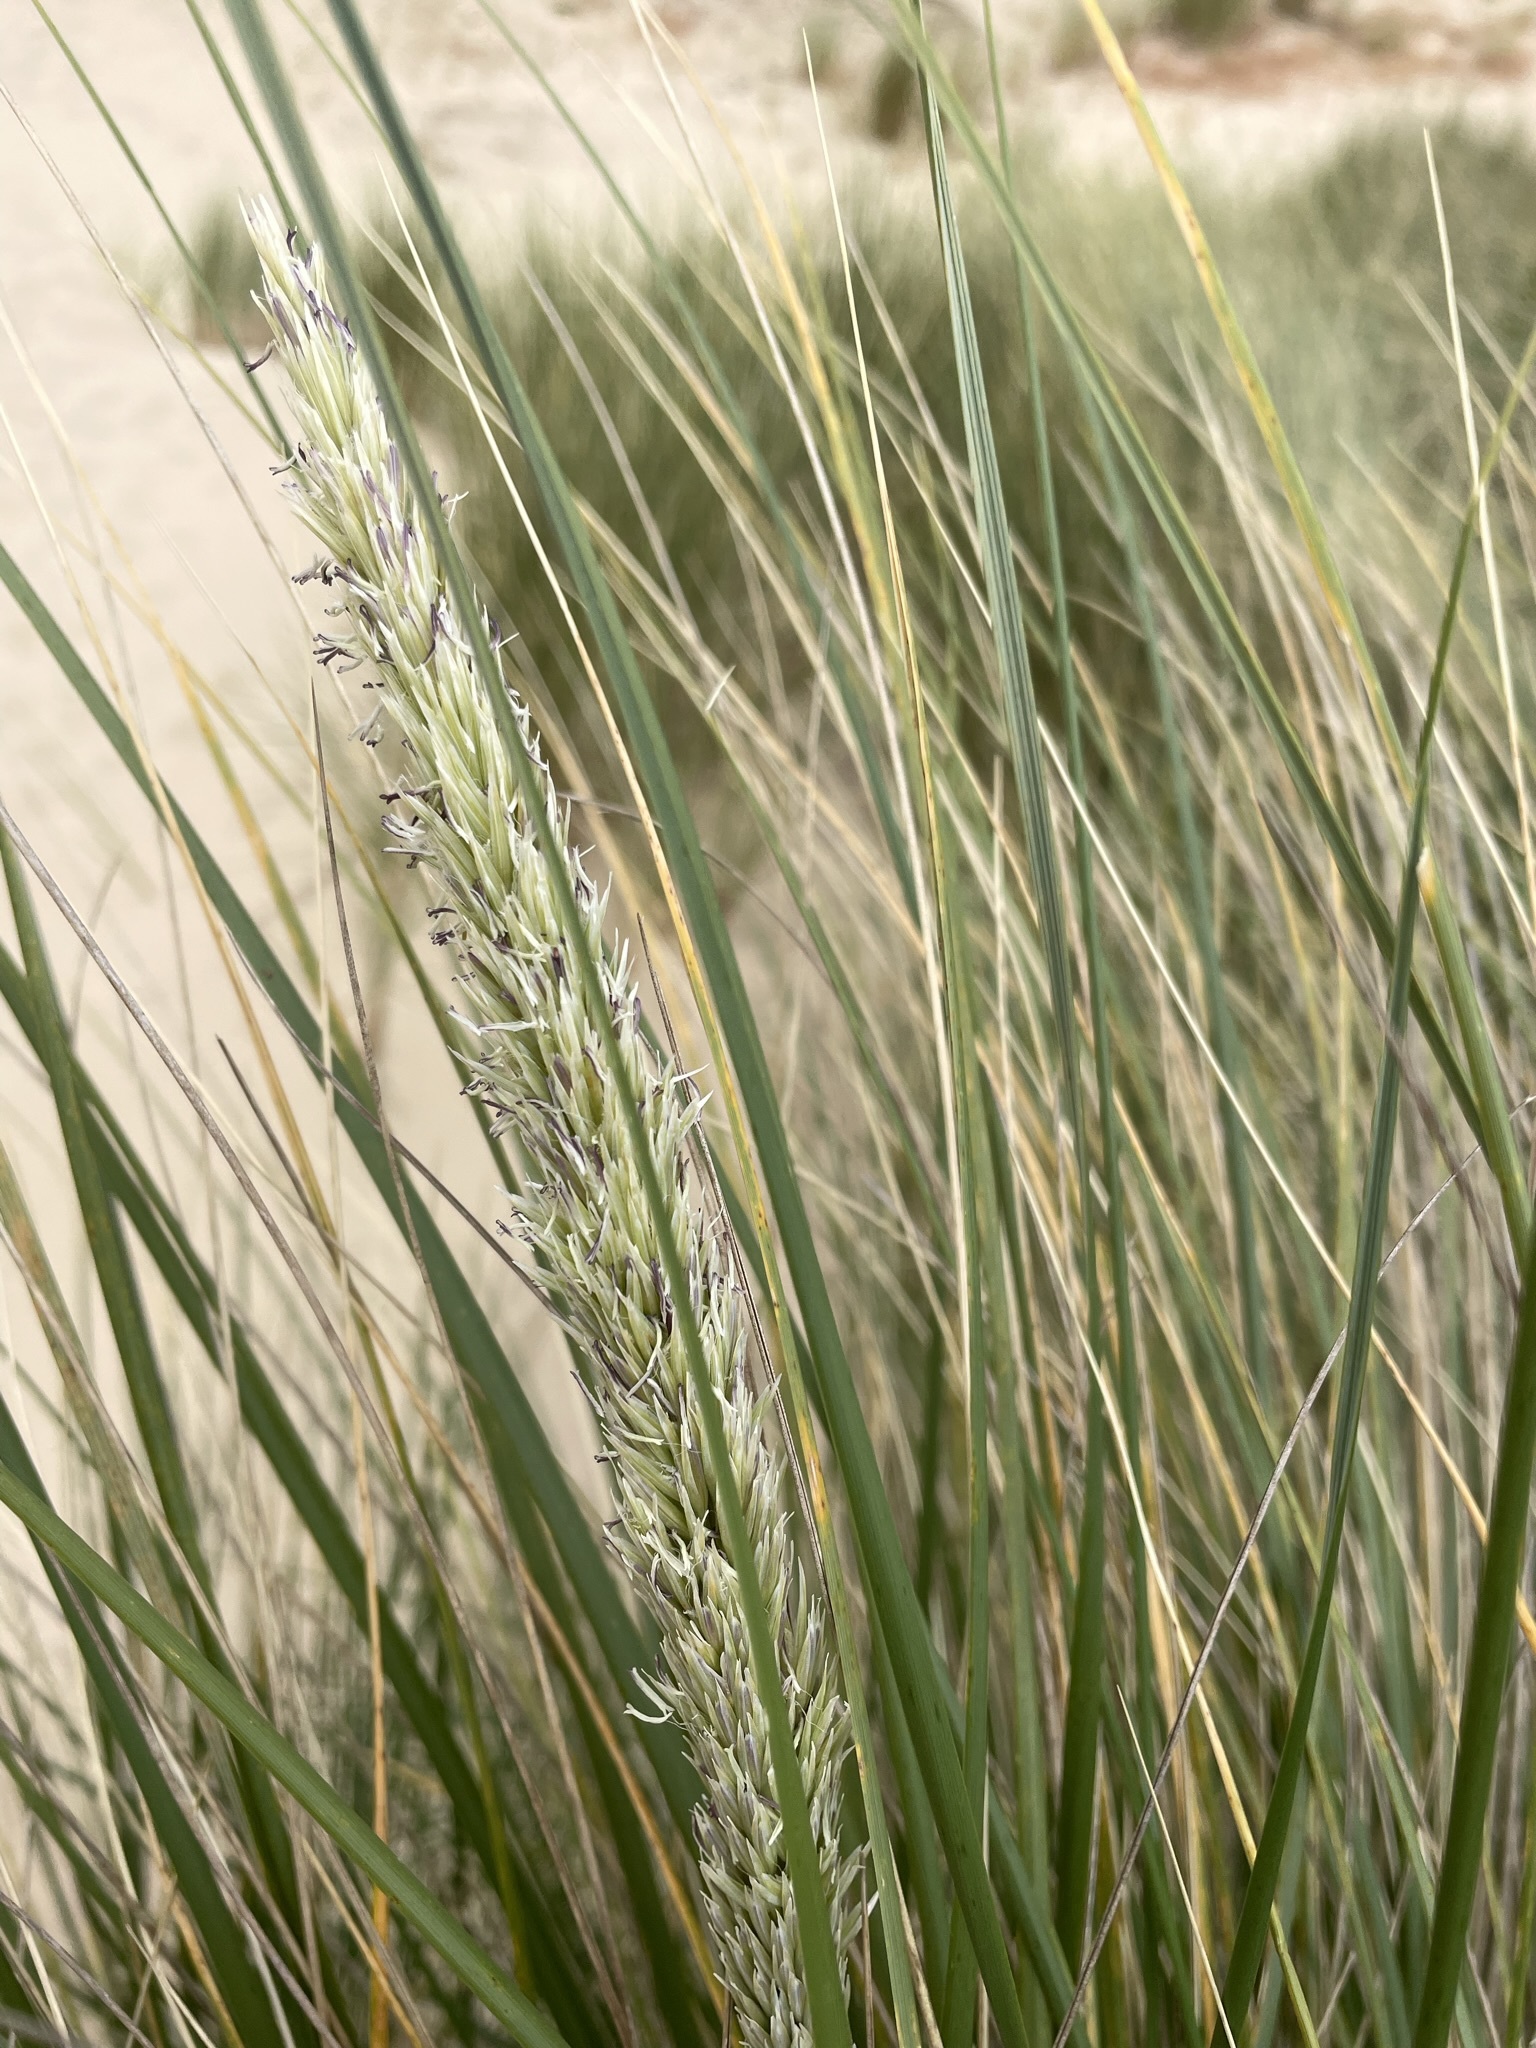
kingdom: Plantae
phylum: Tracheophyta
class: Liliopsida
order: Poales
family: Poaceae
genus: Calamagrostis
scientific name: Calamagrostis arenaria
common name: European beachgrass
